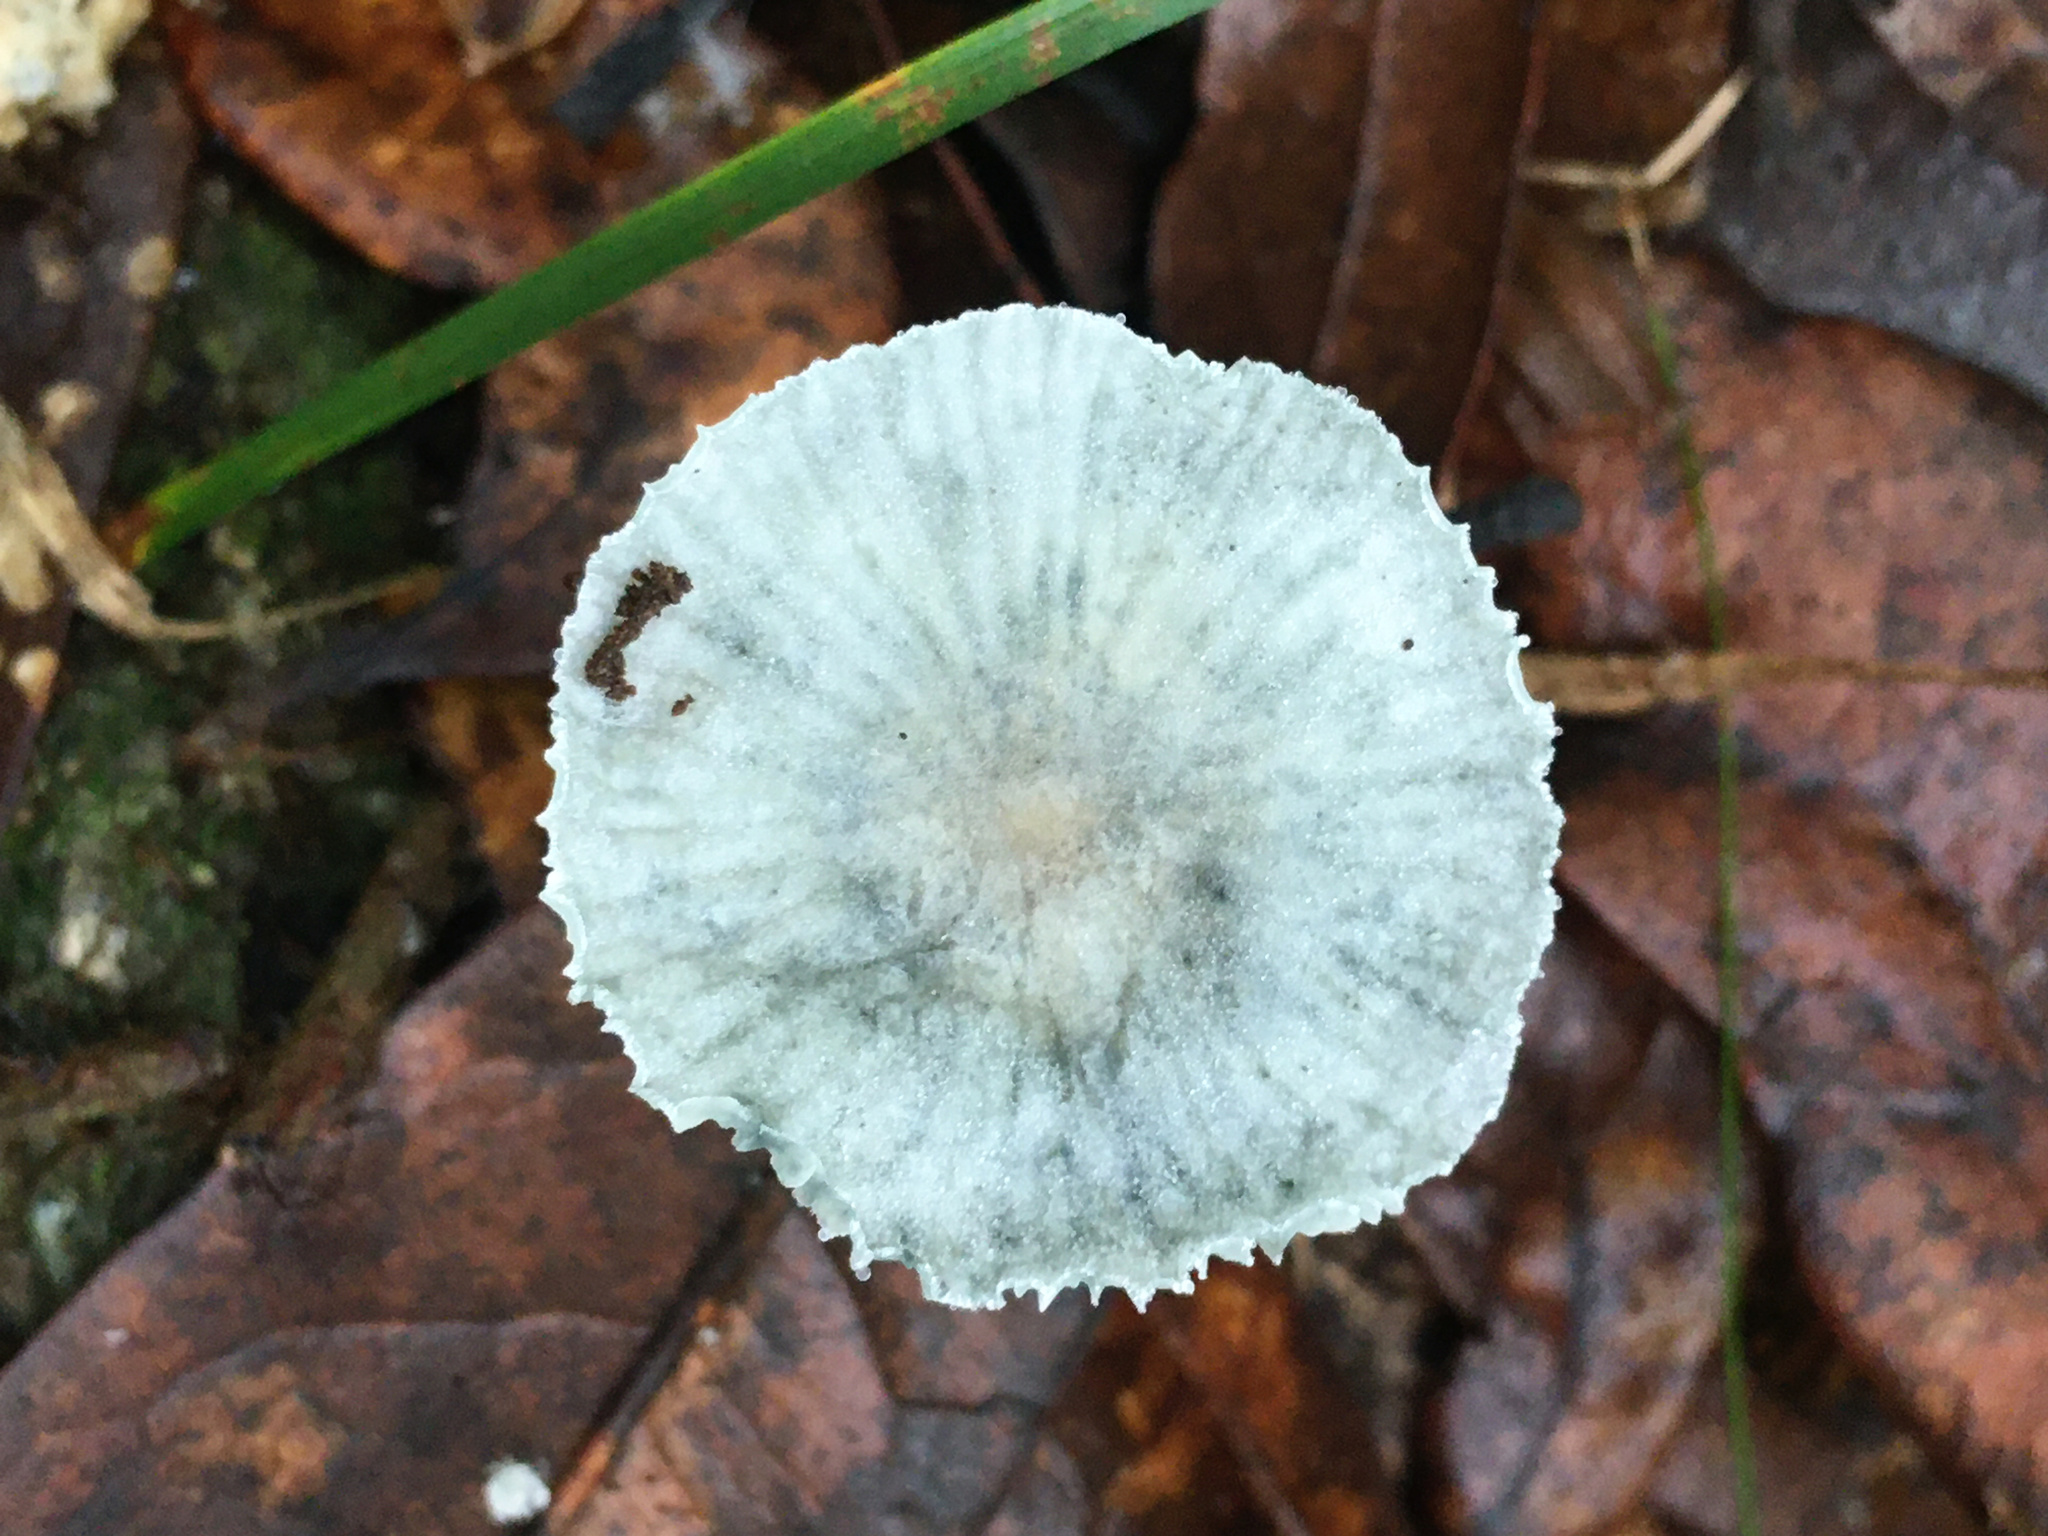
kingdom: Fungi
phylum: Basidiomycota
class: Agaricomycetes
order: Agaricales
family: Marasmiaceae
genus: Tetrapyrgos
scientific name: Tetrapyrgos nigripes
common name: Black-stalked marasmius
